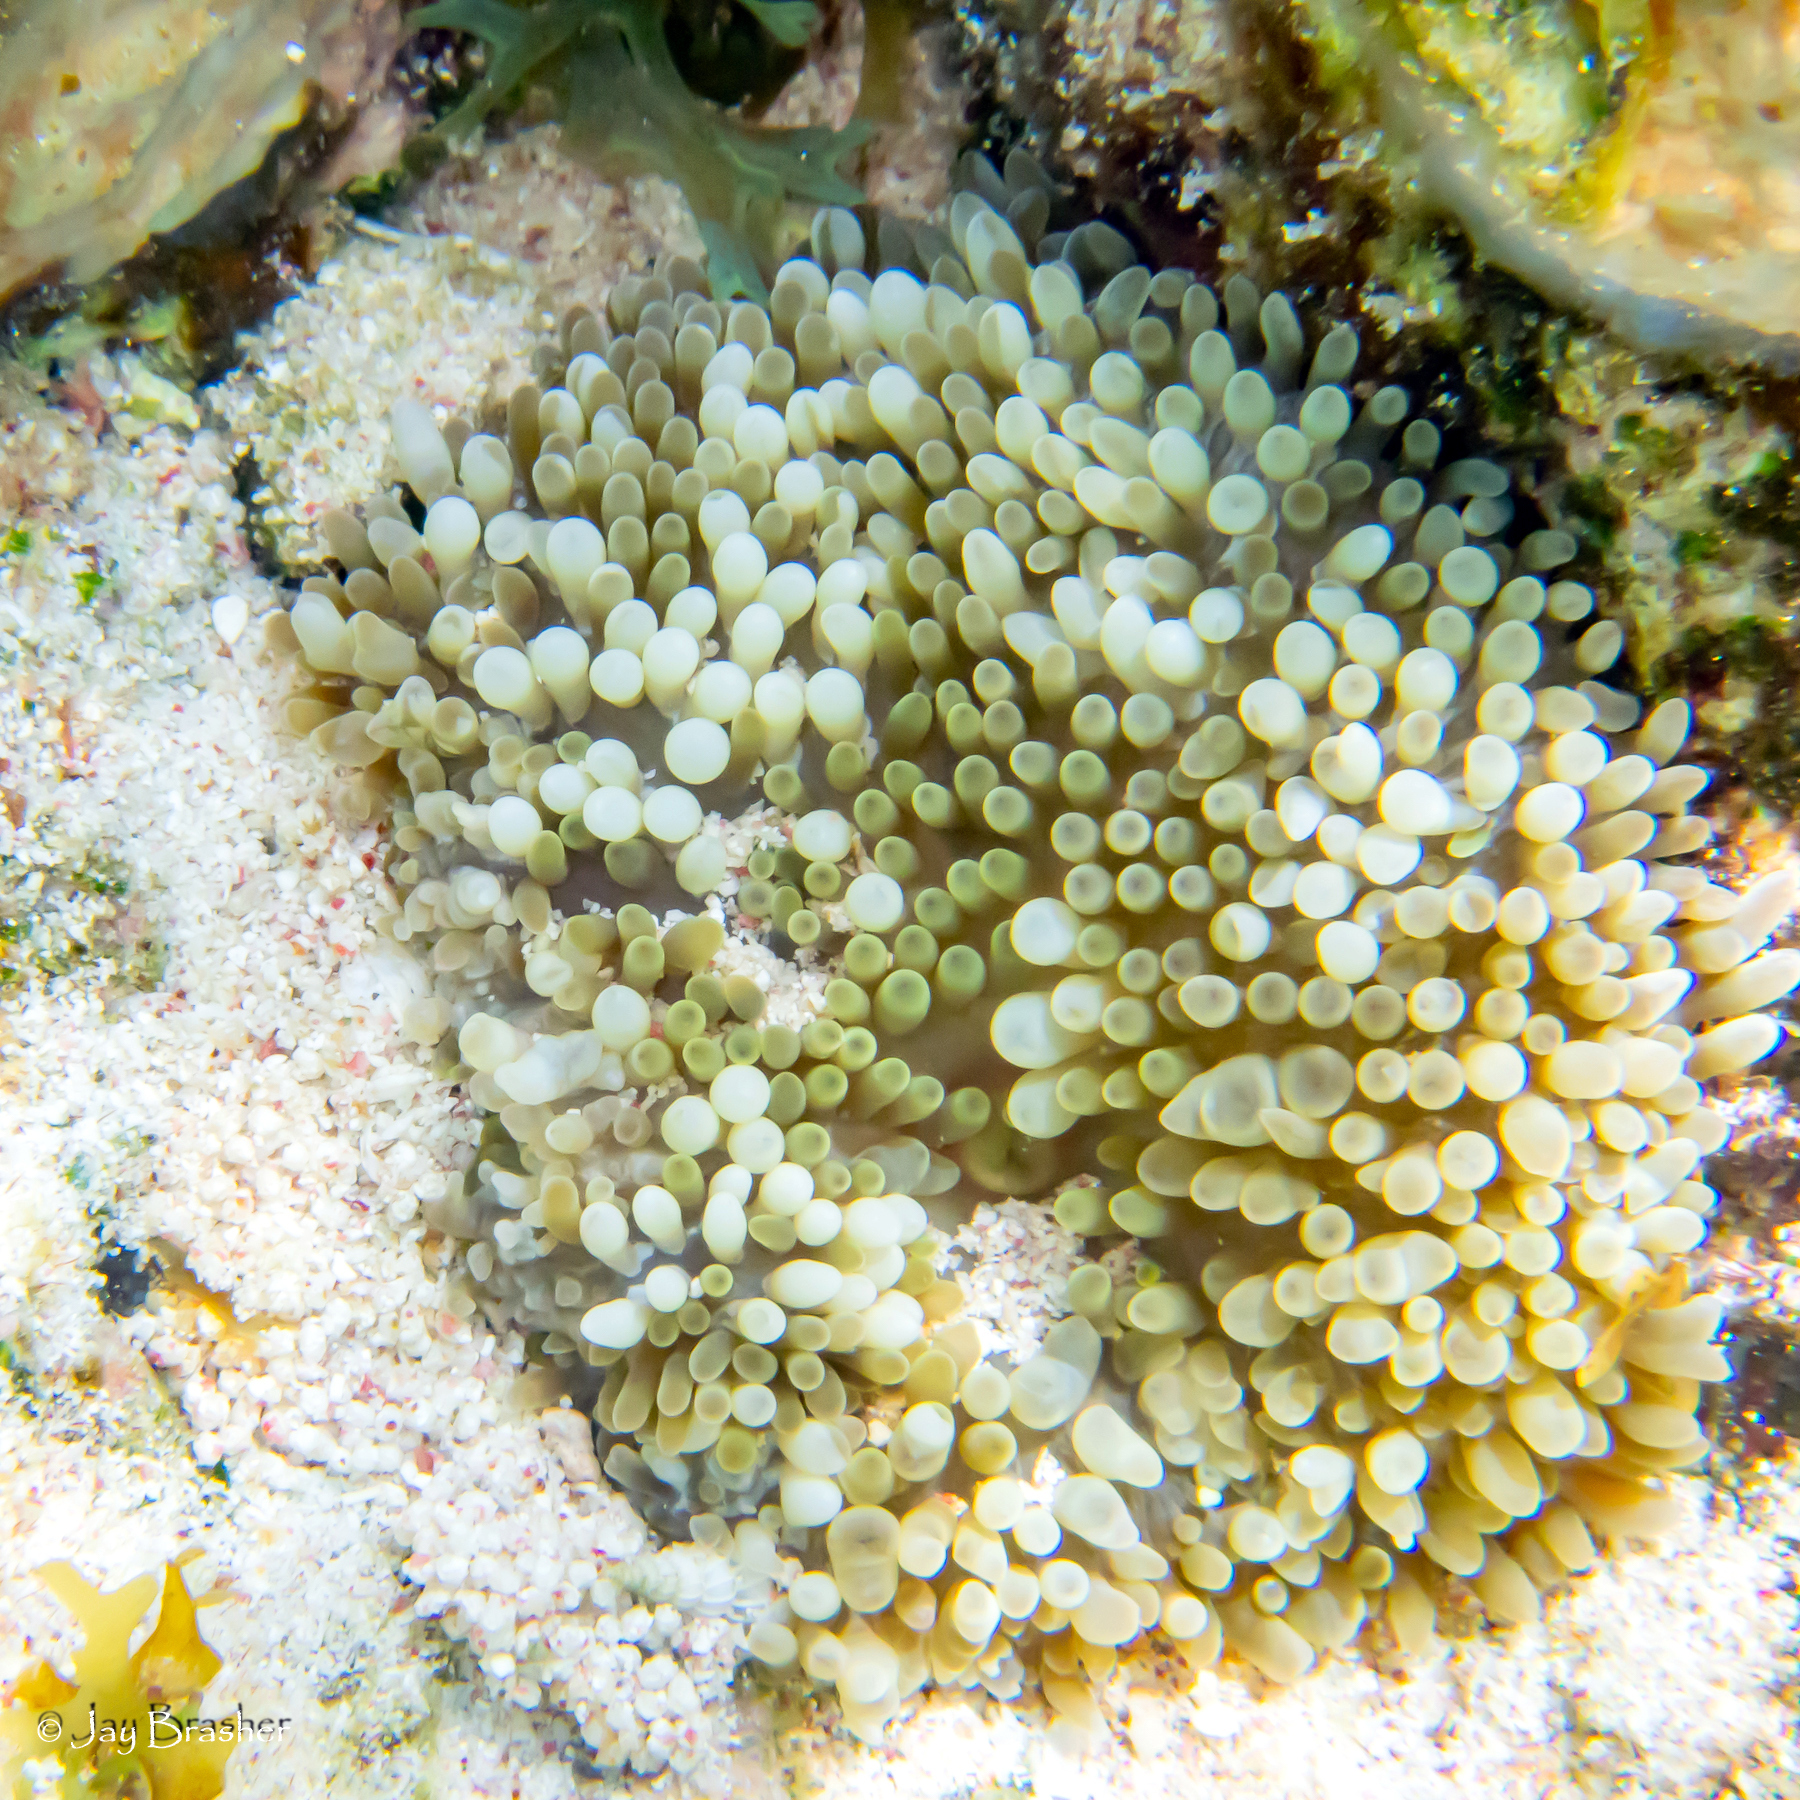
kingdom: Animalia
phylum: Cnidaria
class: Anthozoa
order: Actiniaria
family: Stichodactylidae
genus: Stichodactyla
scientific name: Stichodactyla helianthus
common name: Sun anemone
